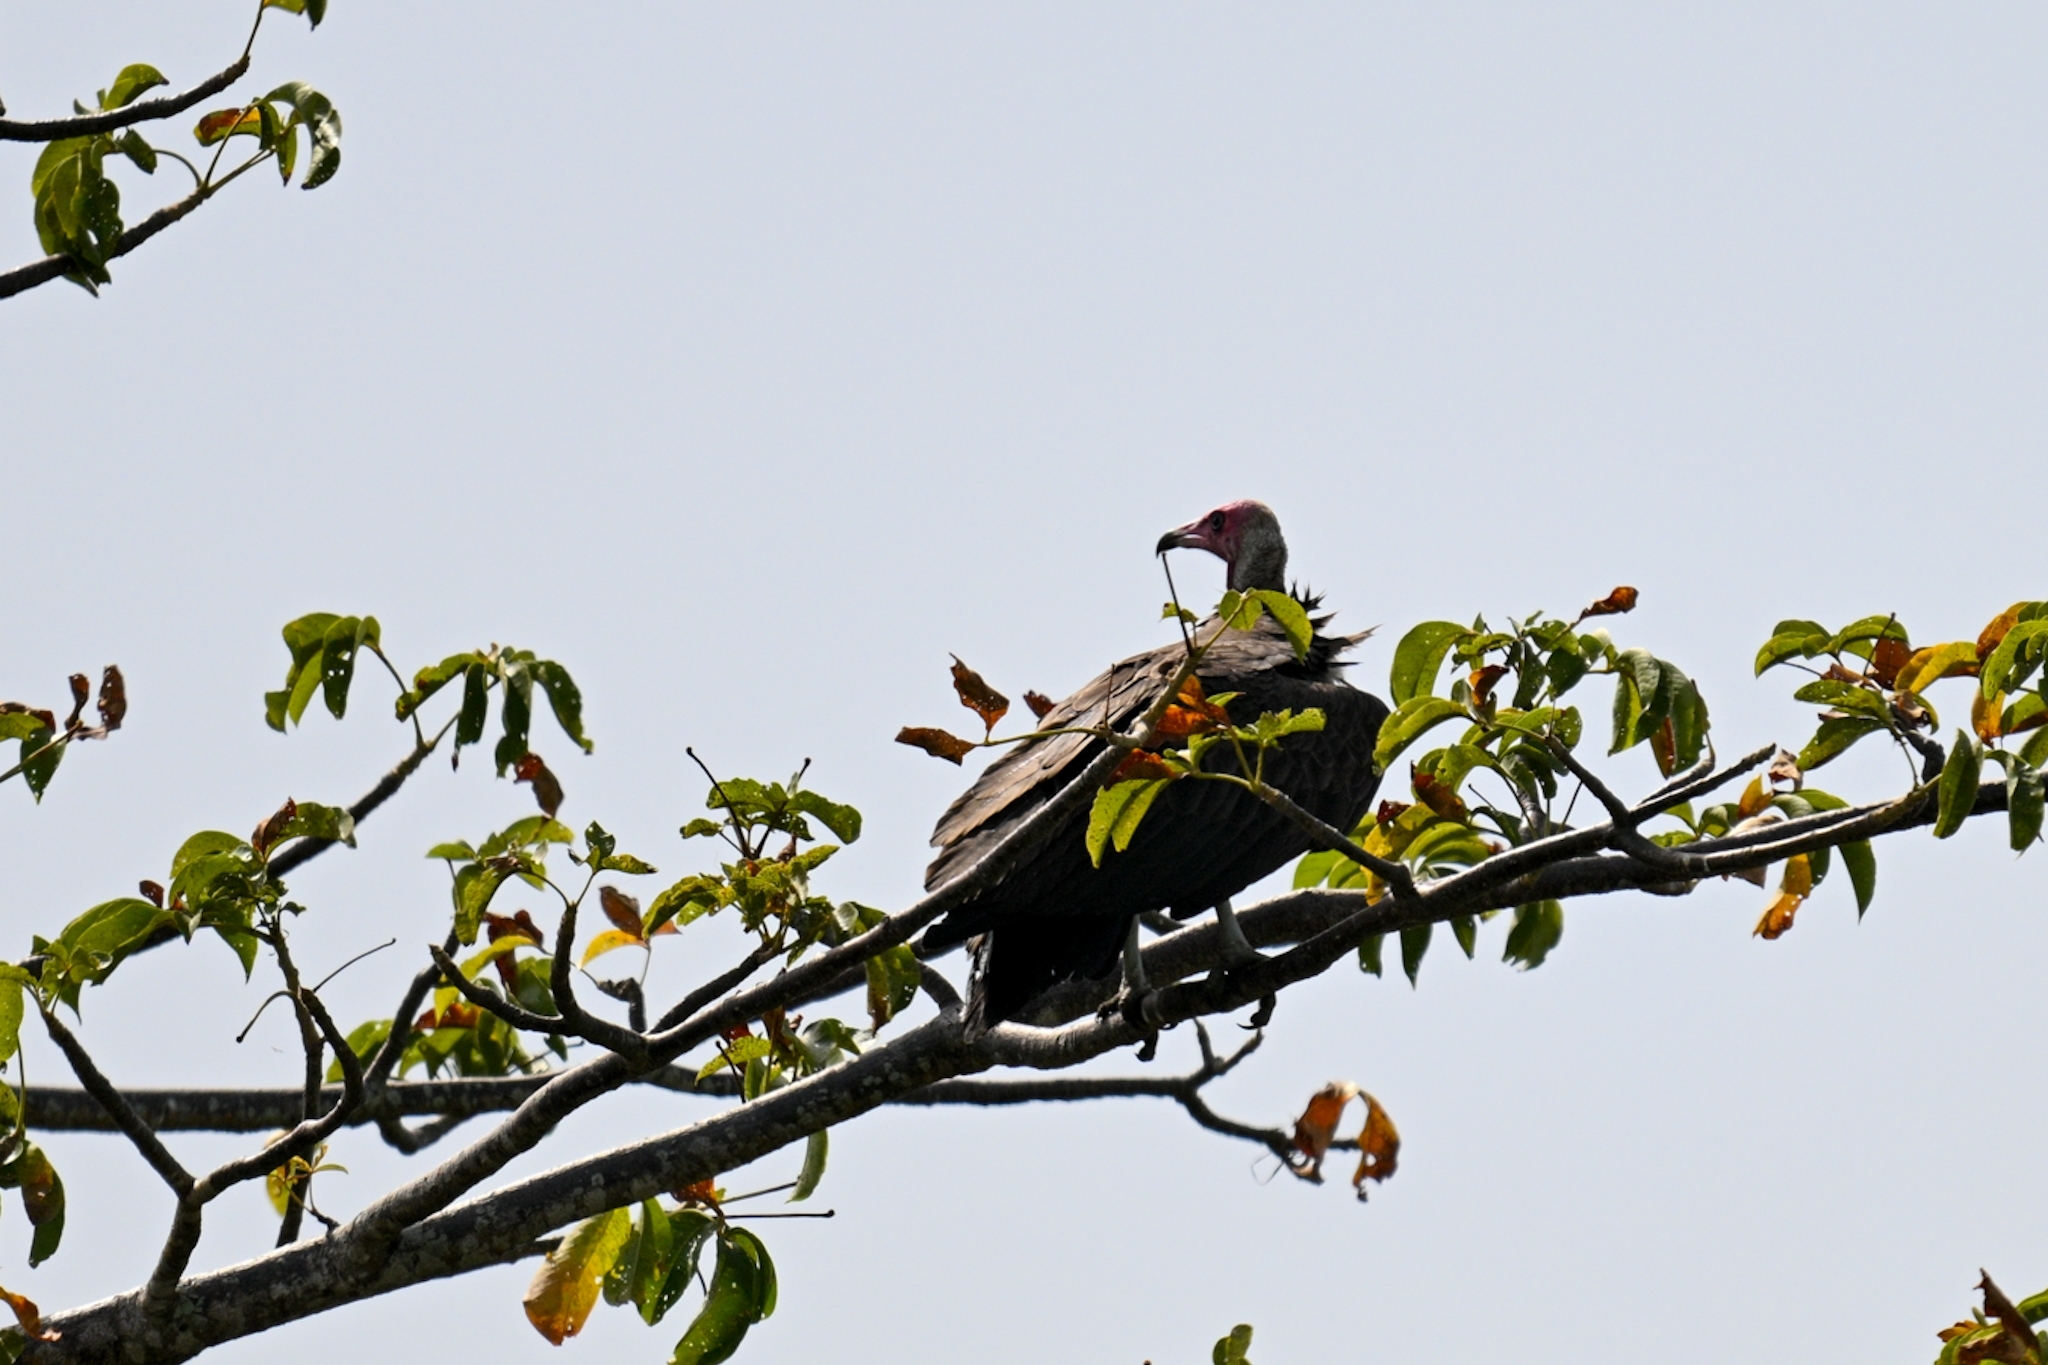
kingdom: Animalia
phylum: Chordata
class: Aves
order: Accipitriformes
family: Accipitridae
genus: Necrosyrtes
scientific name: Necrosyrtes monachus
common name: Hooded vulture
